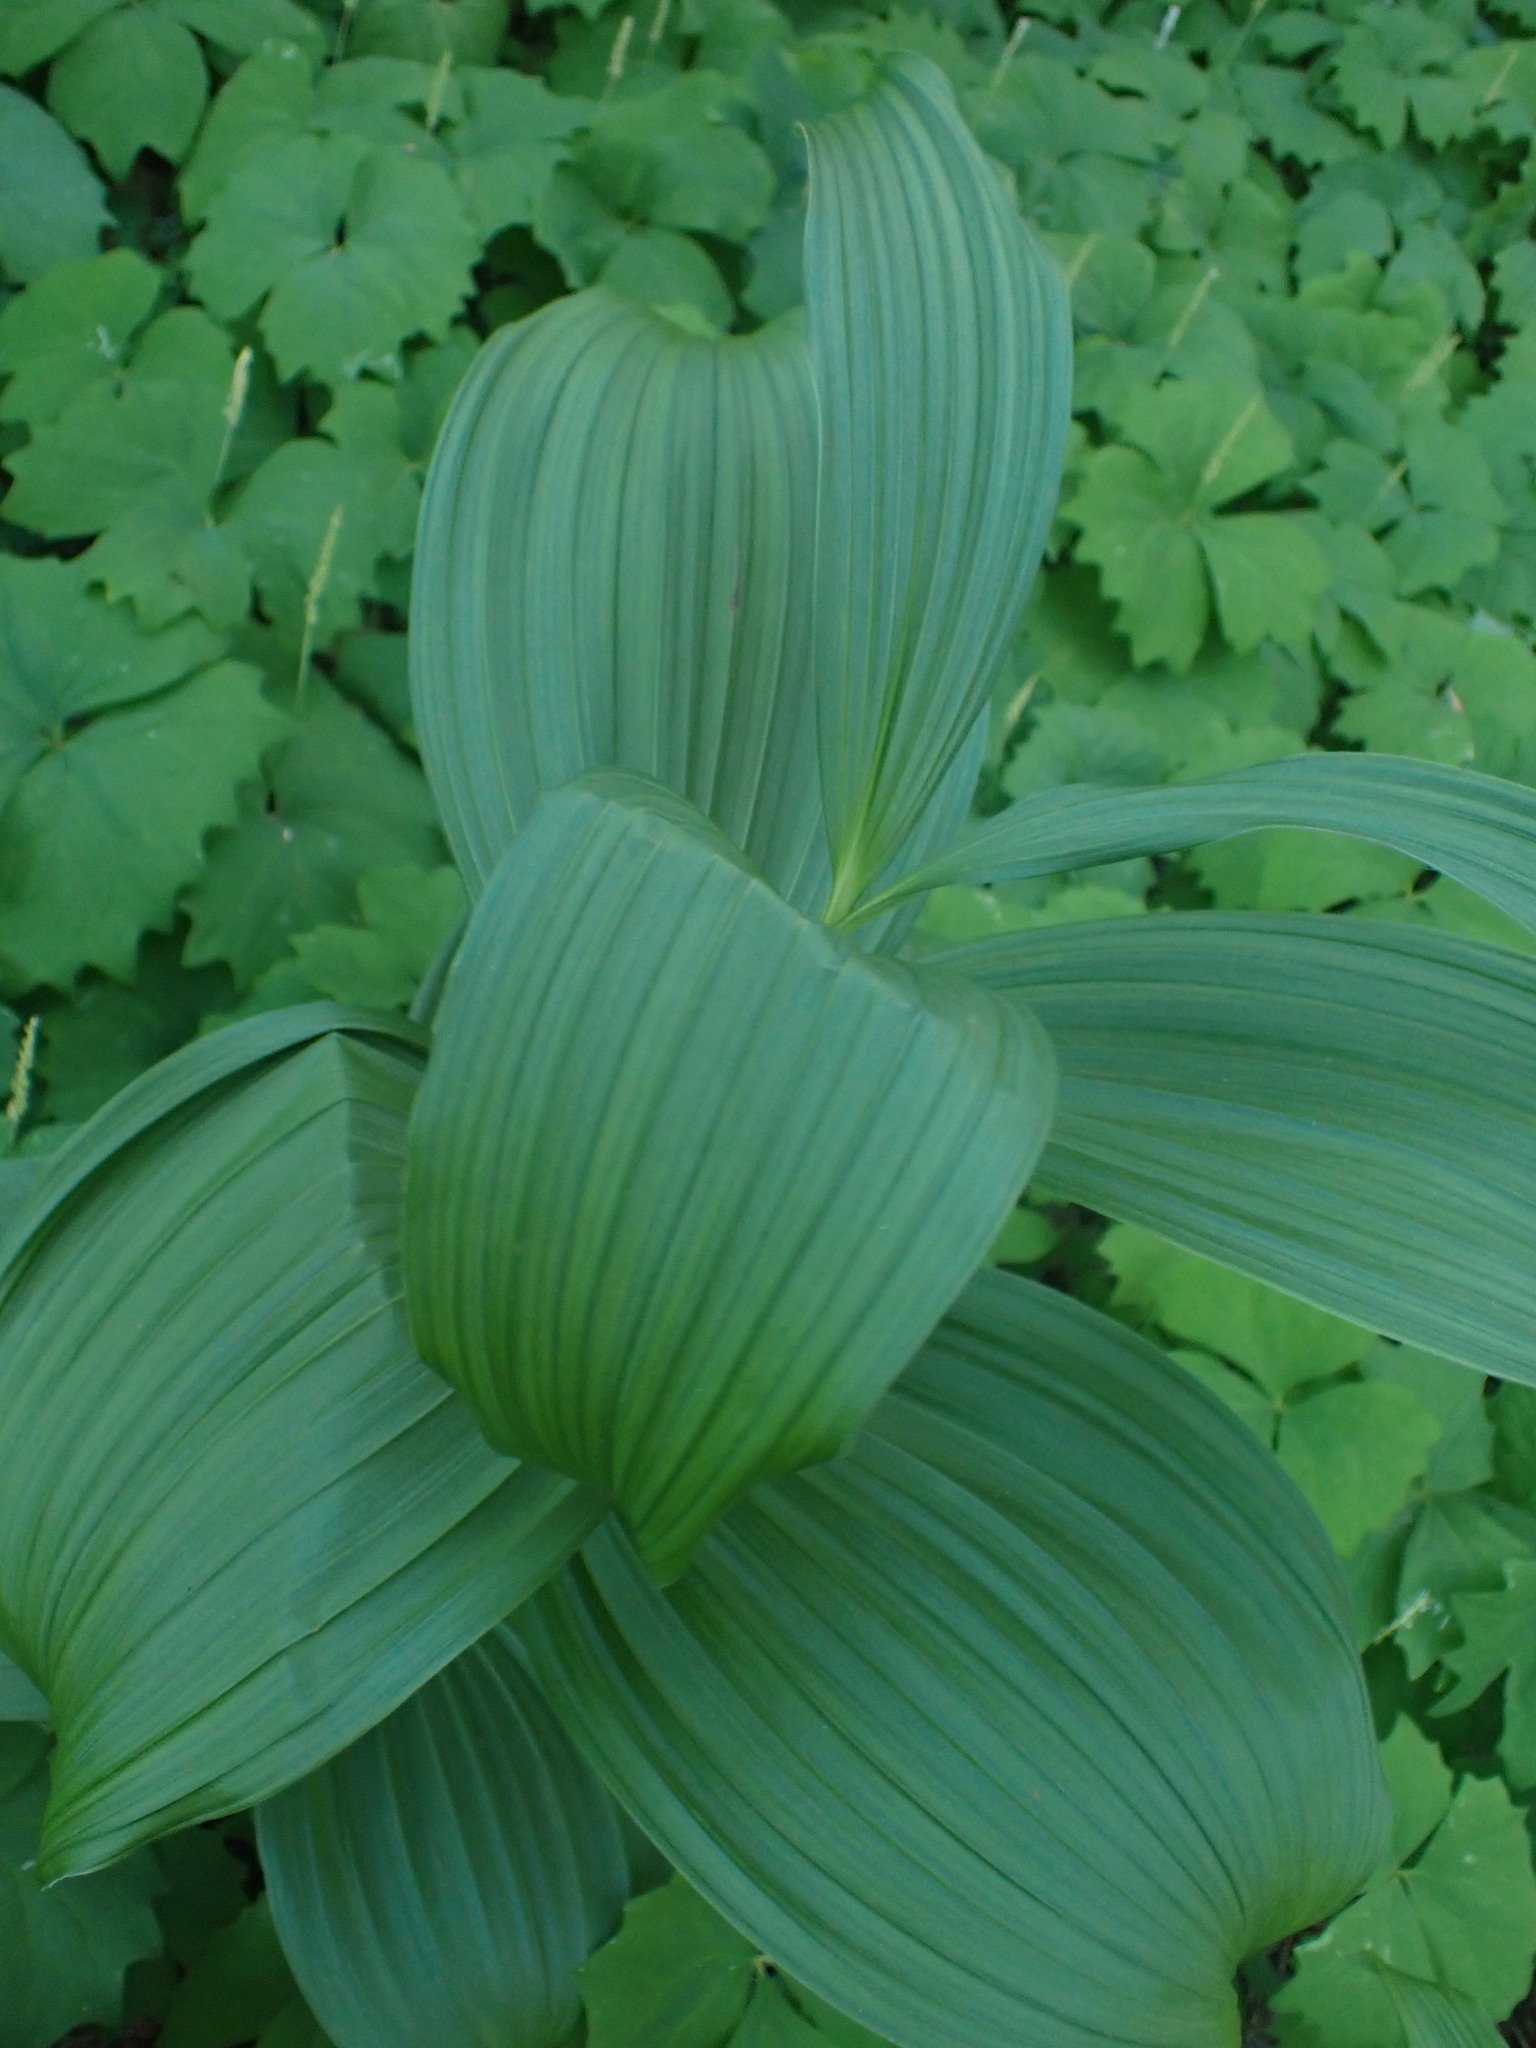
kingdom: Plantae
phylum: Tracheophyta
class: Liliopsida
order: Liliales
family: Melanthiaceae
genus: Veratrum
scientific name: Veratrum viride
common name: American false hellebore
